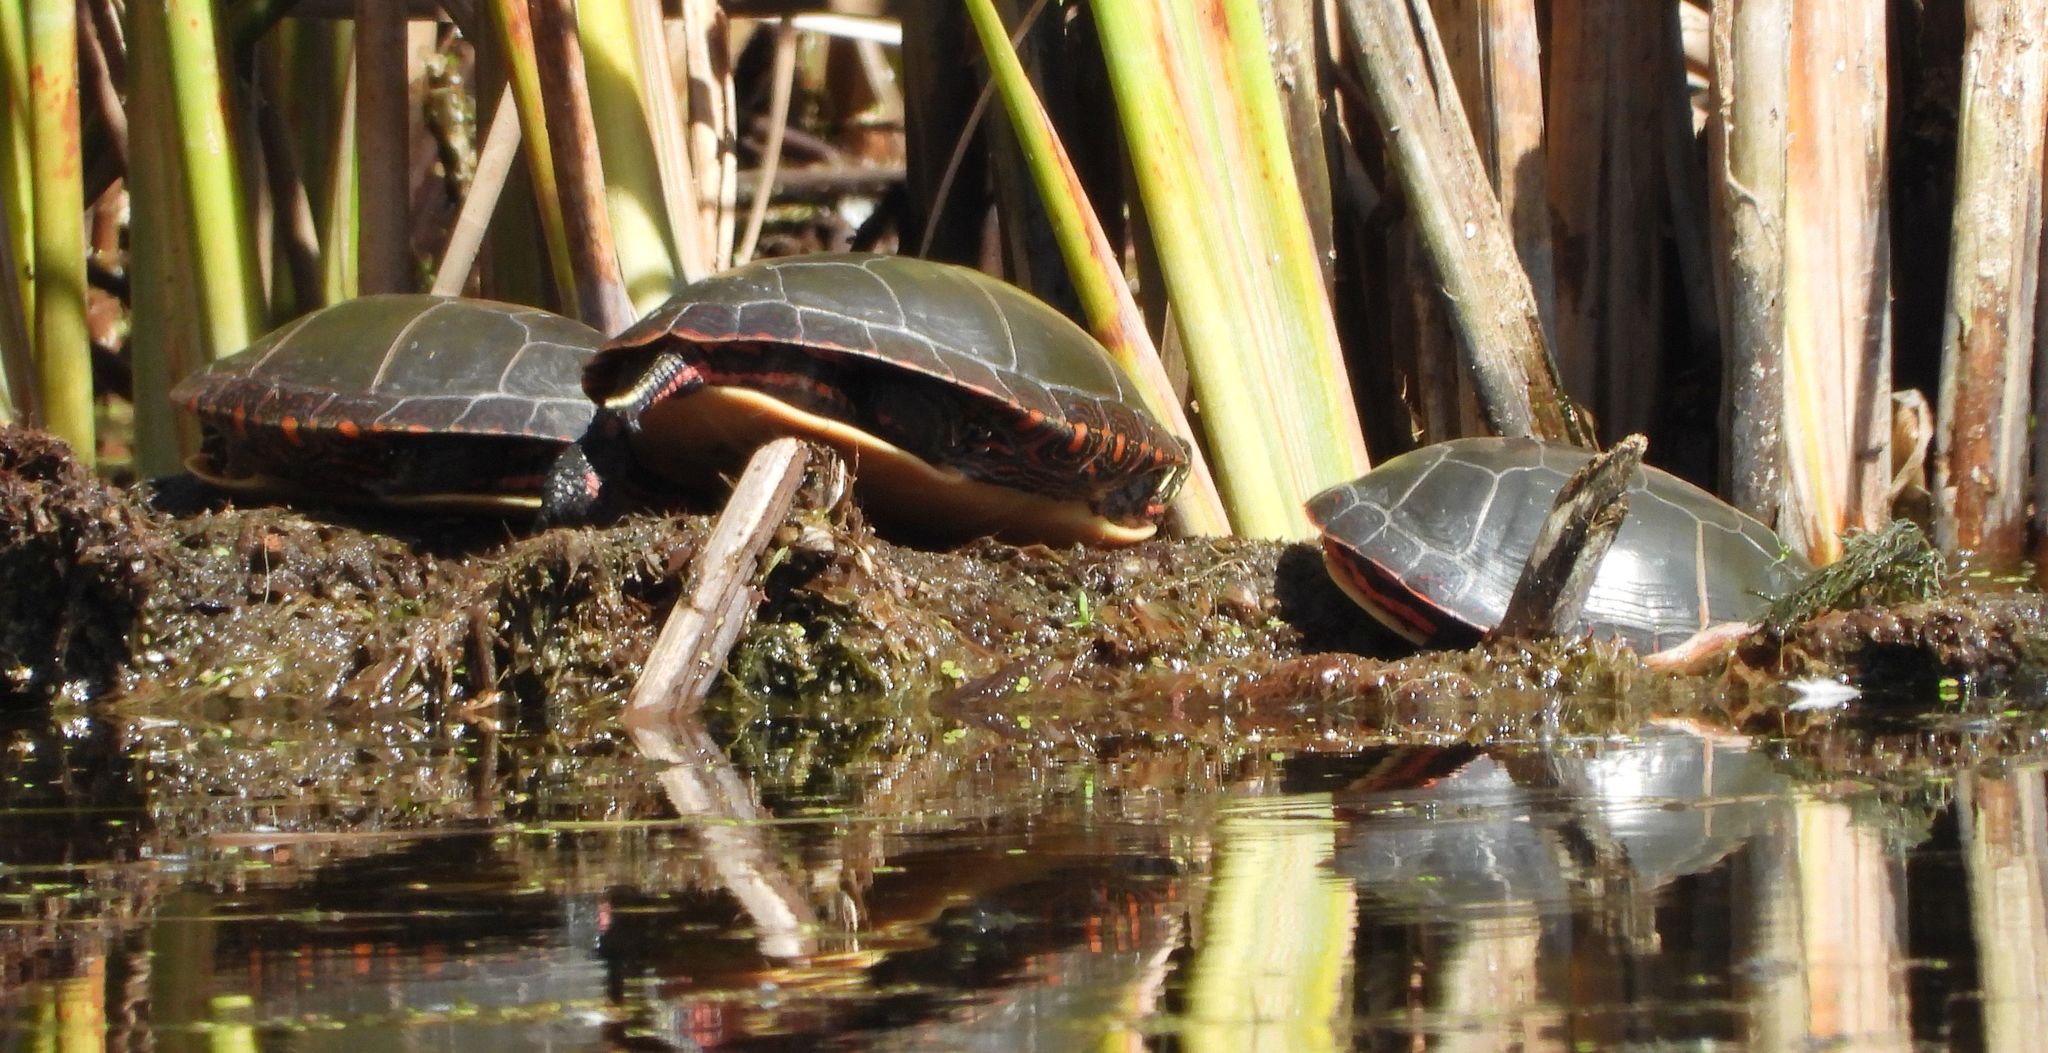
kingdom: Animalia
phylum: Chordata
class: Testudines
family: Emydidae
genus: Chrysemys
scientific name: Chrysemys picta
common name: Painted turtle
